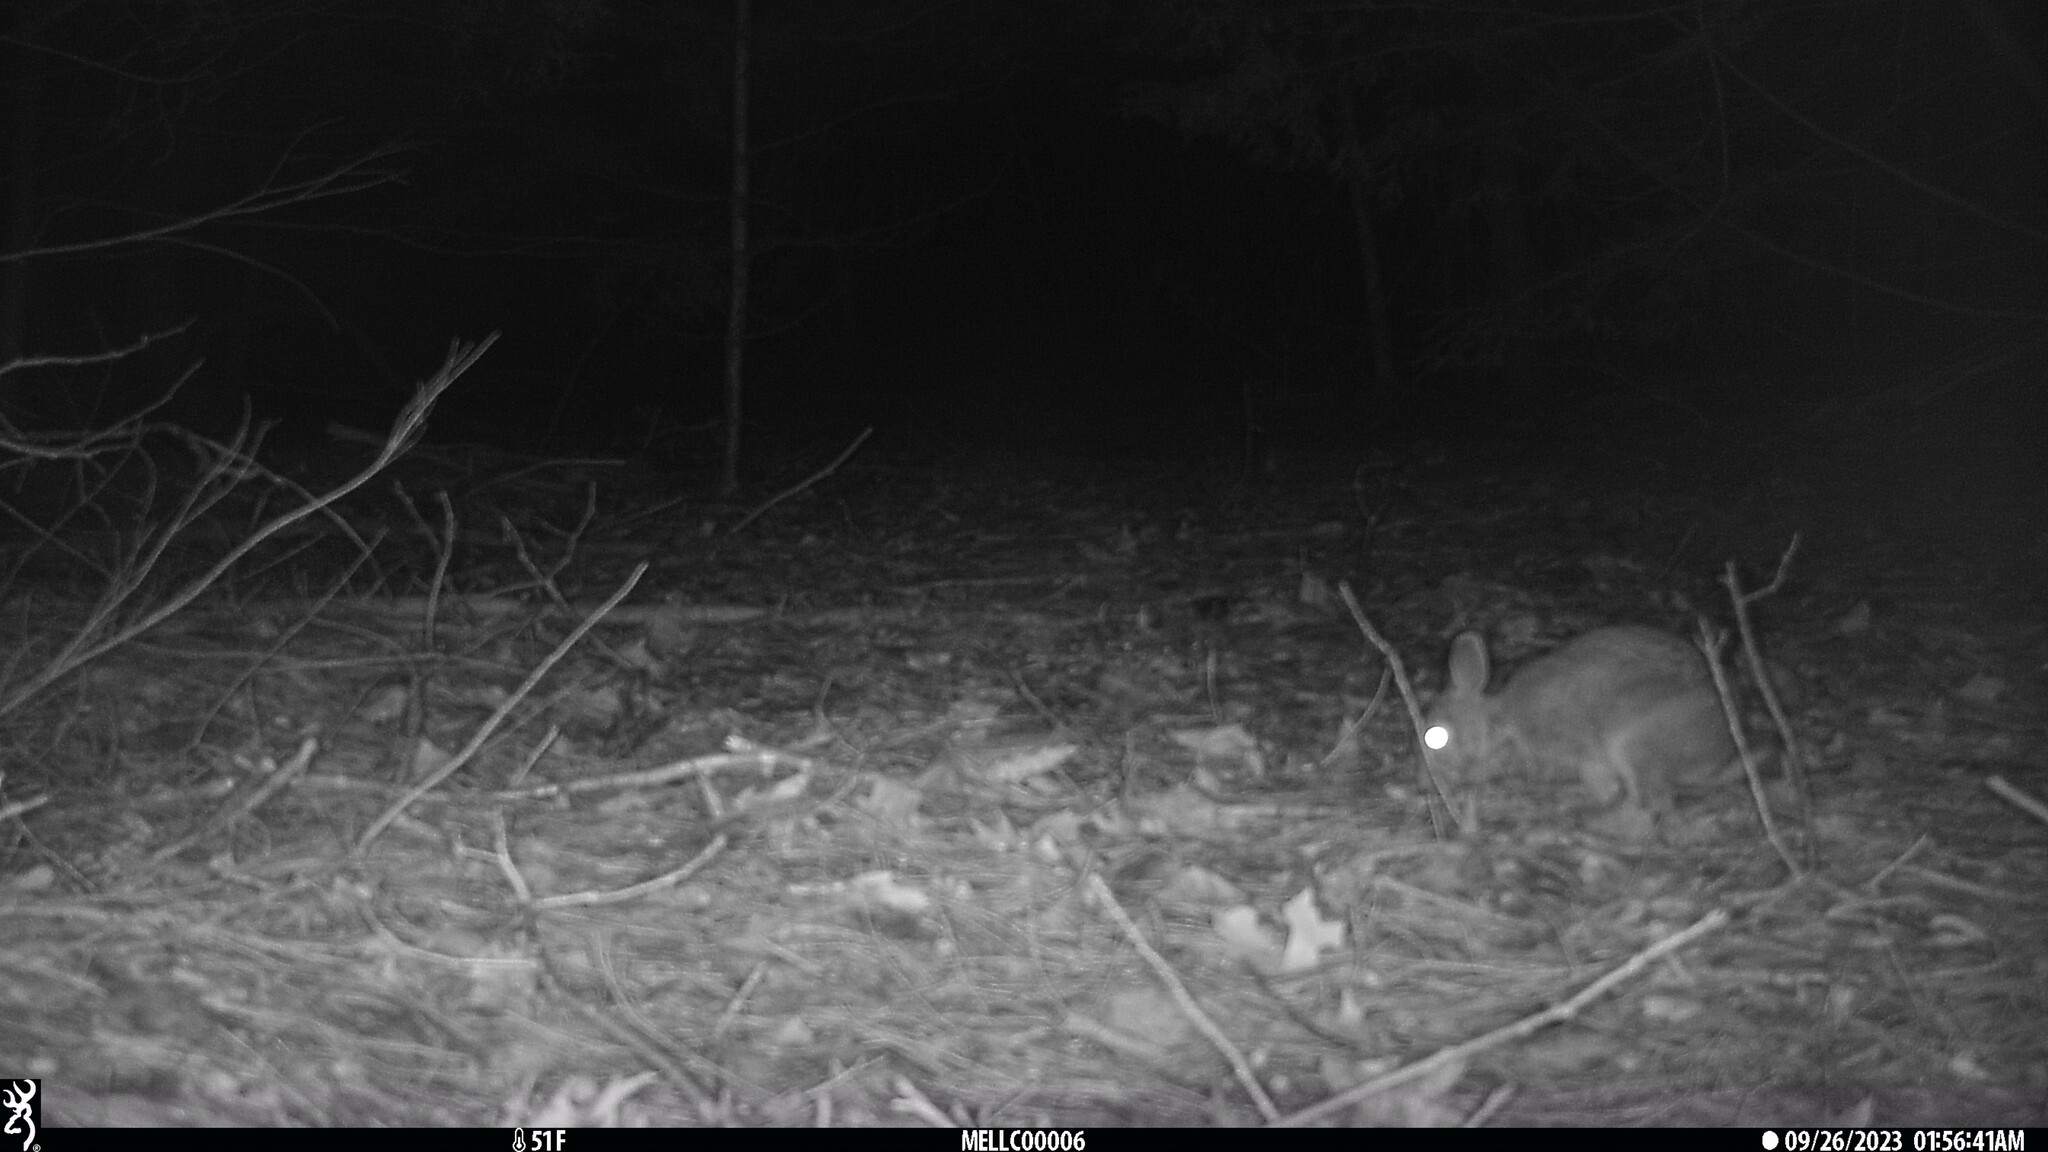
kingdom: Animalia
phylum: Chordata
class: Mammalia
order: Lagomorpha
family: Leporidae
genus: Sylvilagus
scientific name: Sylvilagus floridanus
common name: Eastern cottontail
